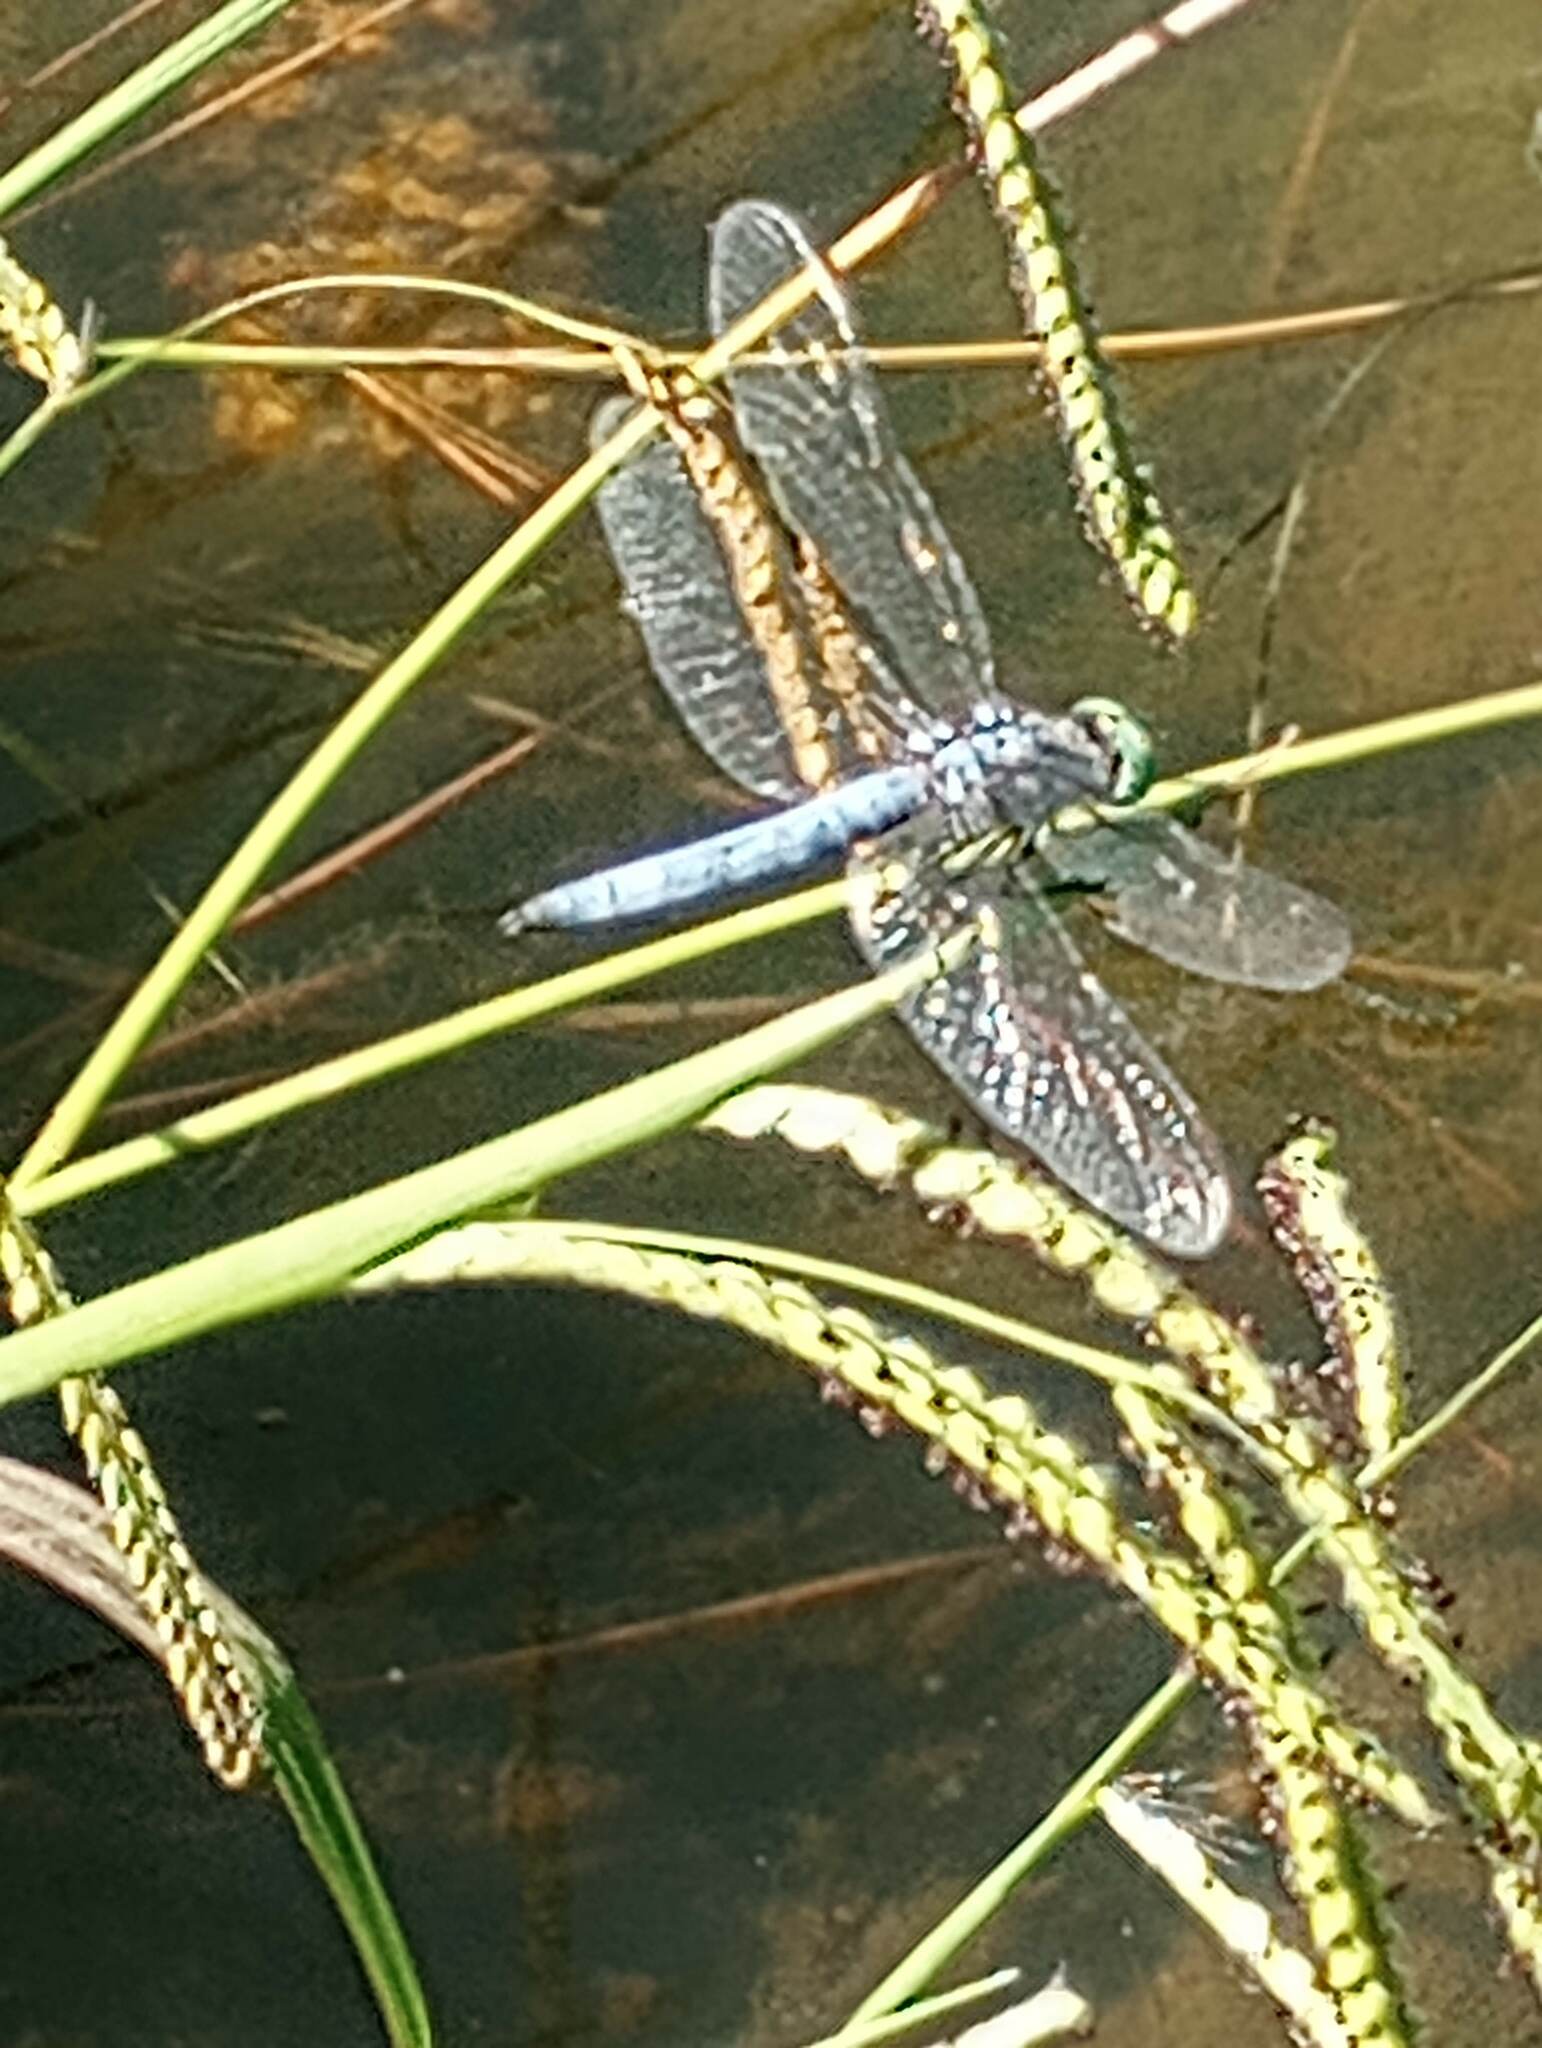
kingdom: Animalia
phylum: Arthropoda
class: Insecta
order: Odonata
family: Libellulidae
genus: Pachydiplax
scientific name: Pachydiplax longipennis
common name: Blue dasher
